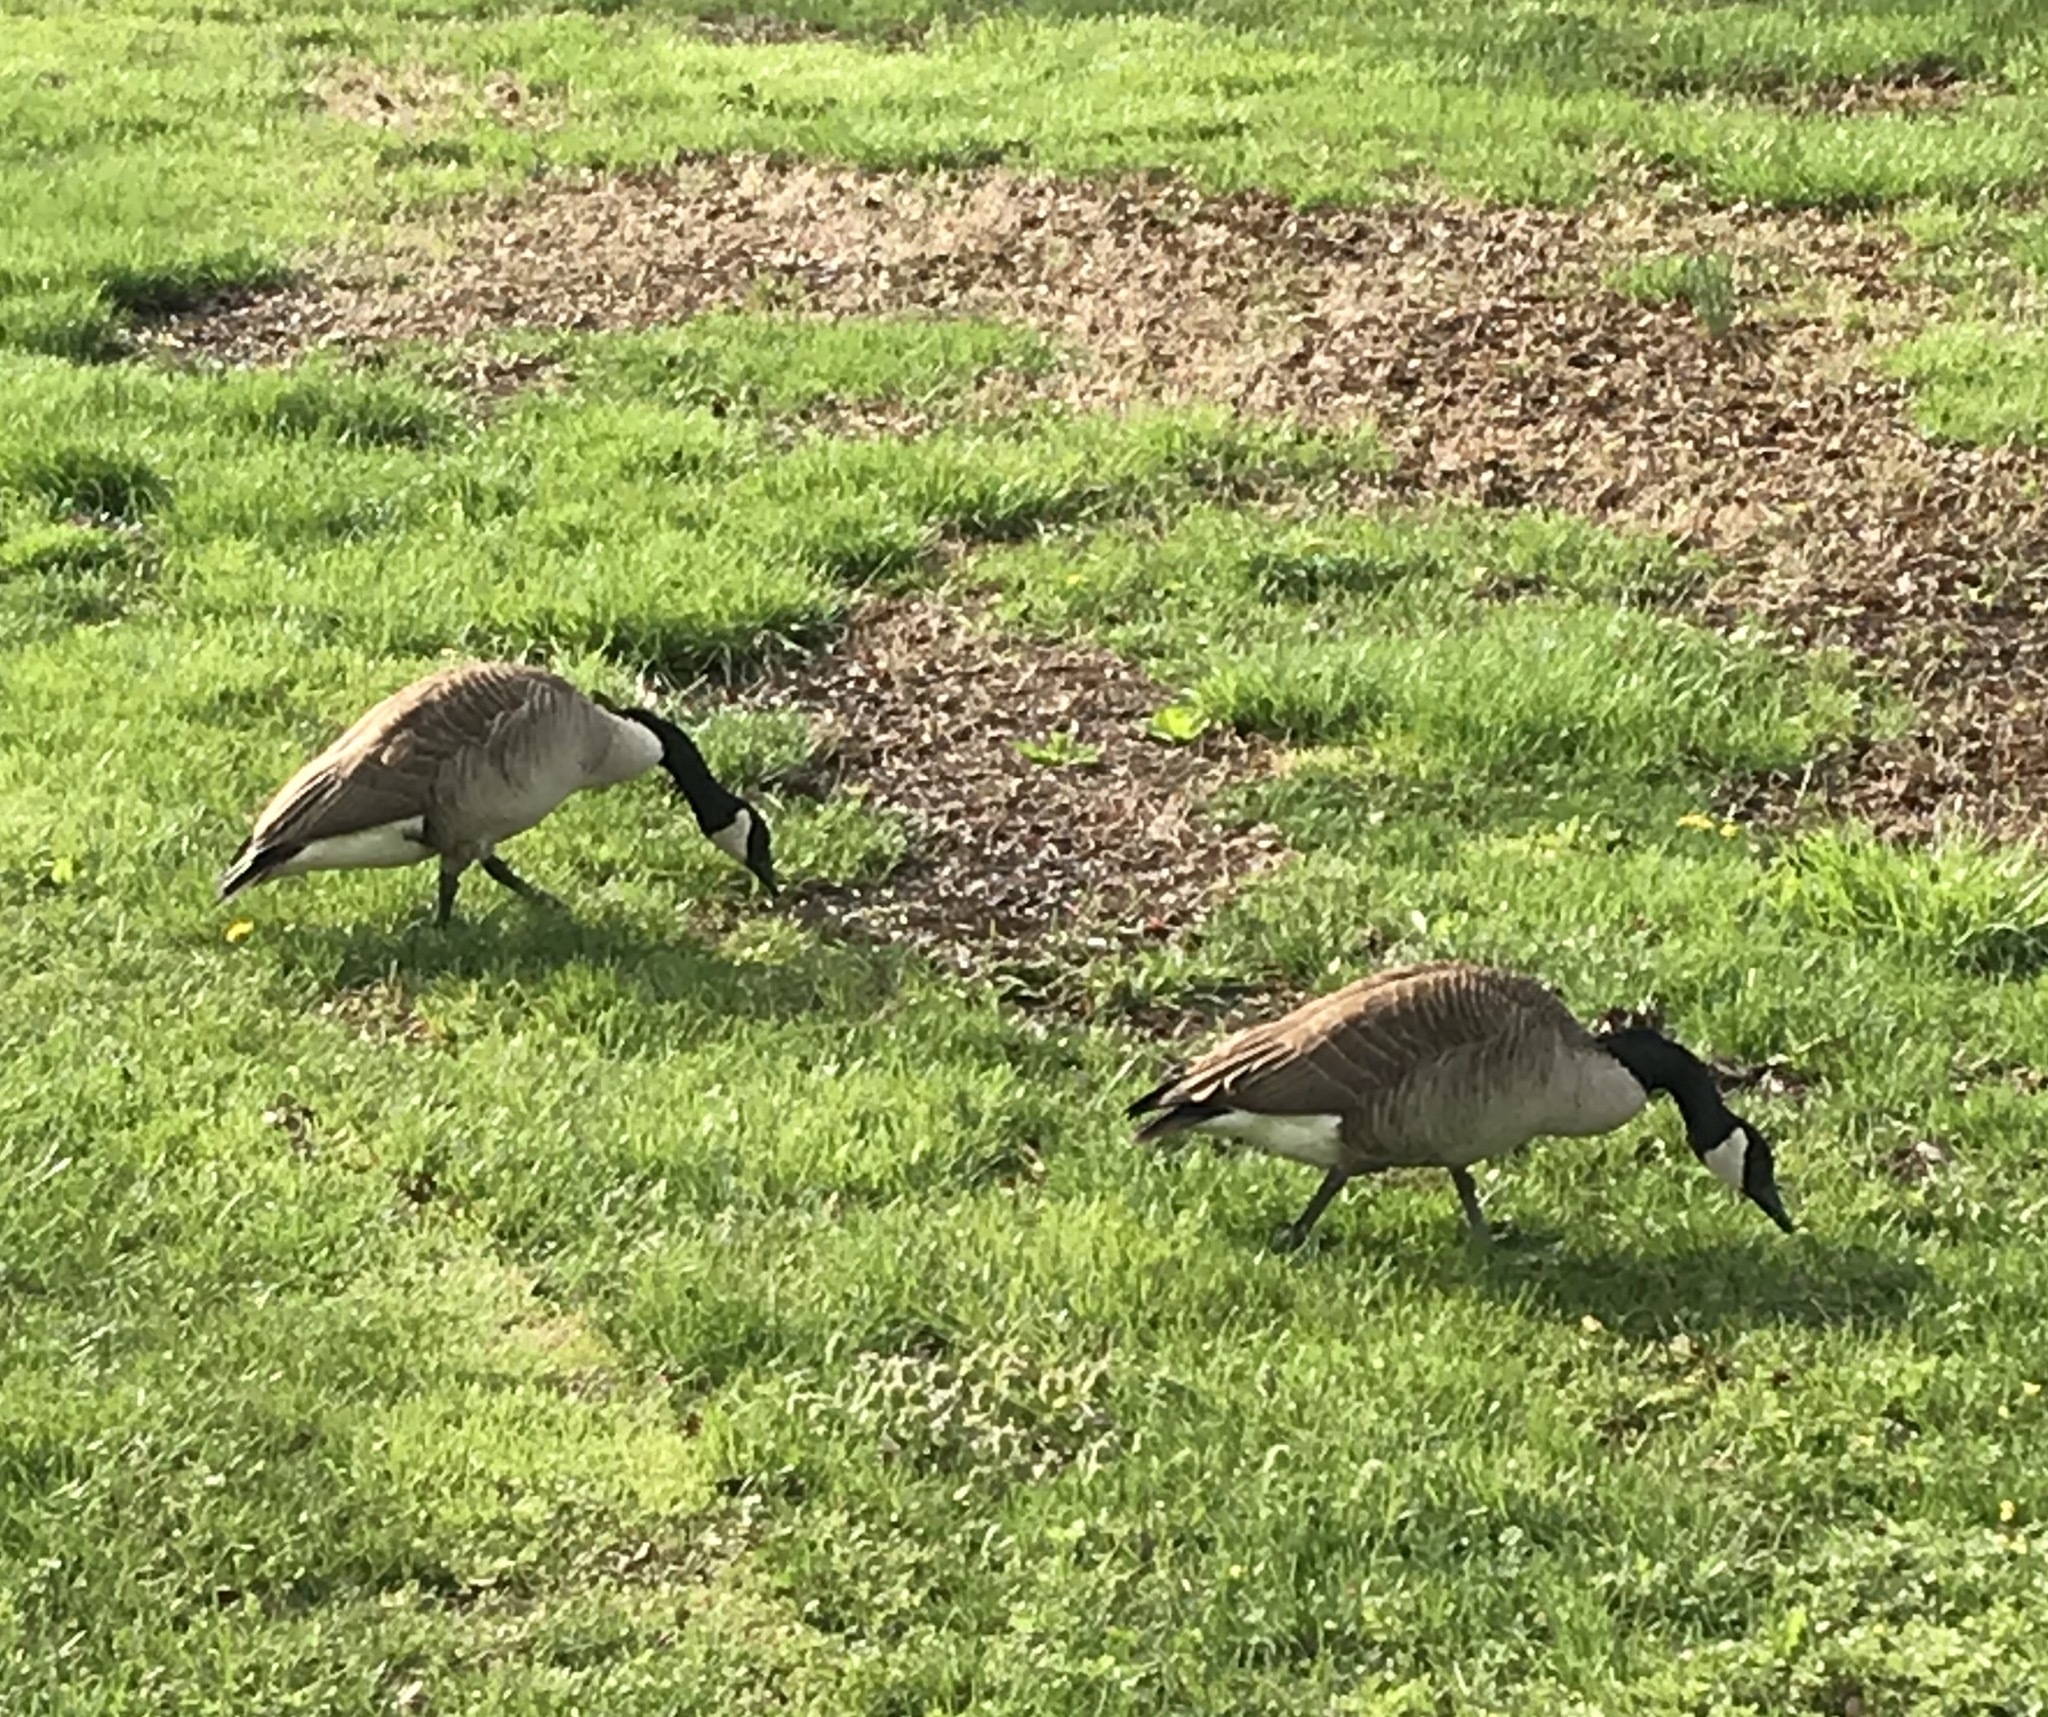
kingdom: Animalia
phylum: Chordata
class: Aves
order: Anseriformes
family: Anatidae
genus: Branta
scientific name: Branta canadensis
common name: Canada goose
